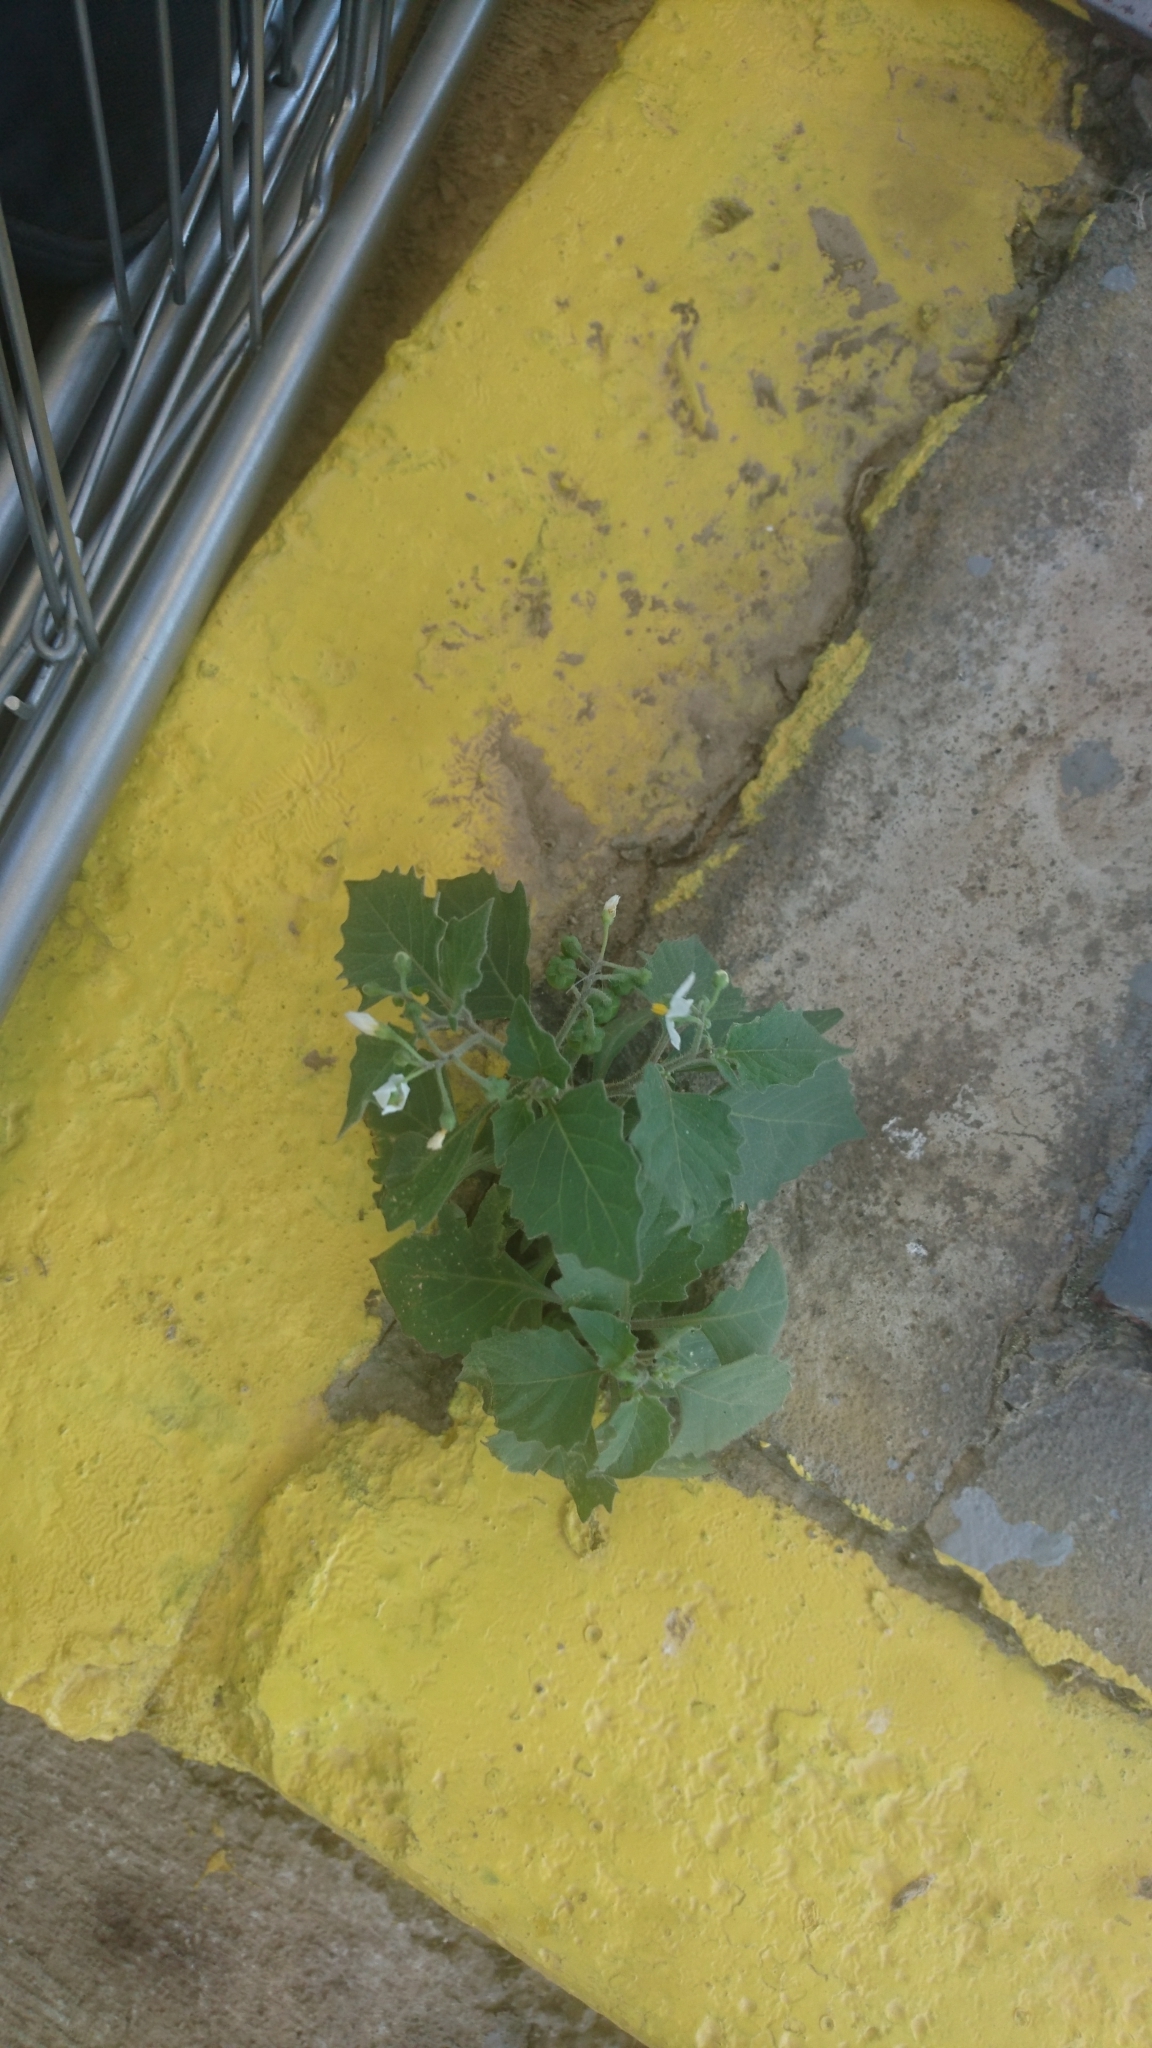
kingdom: Plantae
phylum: Tracheophyta
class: Magnoliopsida
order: Solanales
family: Solanaceae
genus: Solanum
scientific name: Solanum villosum
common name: Red nightshade
